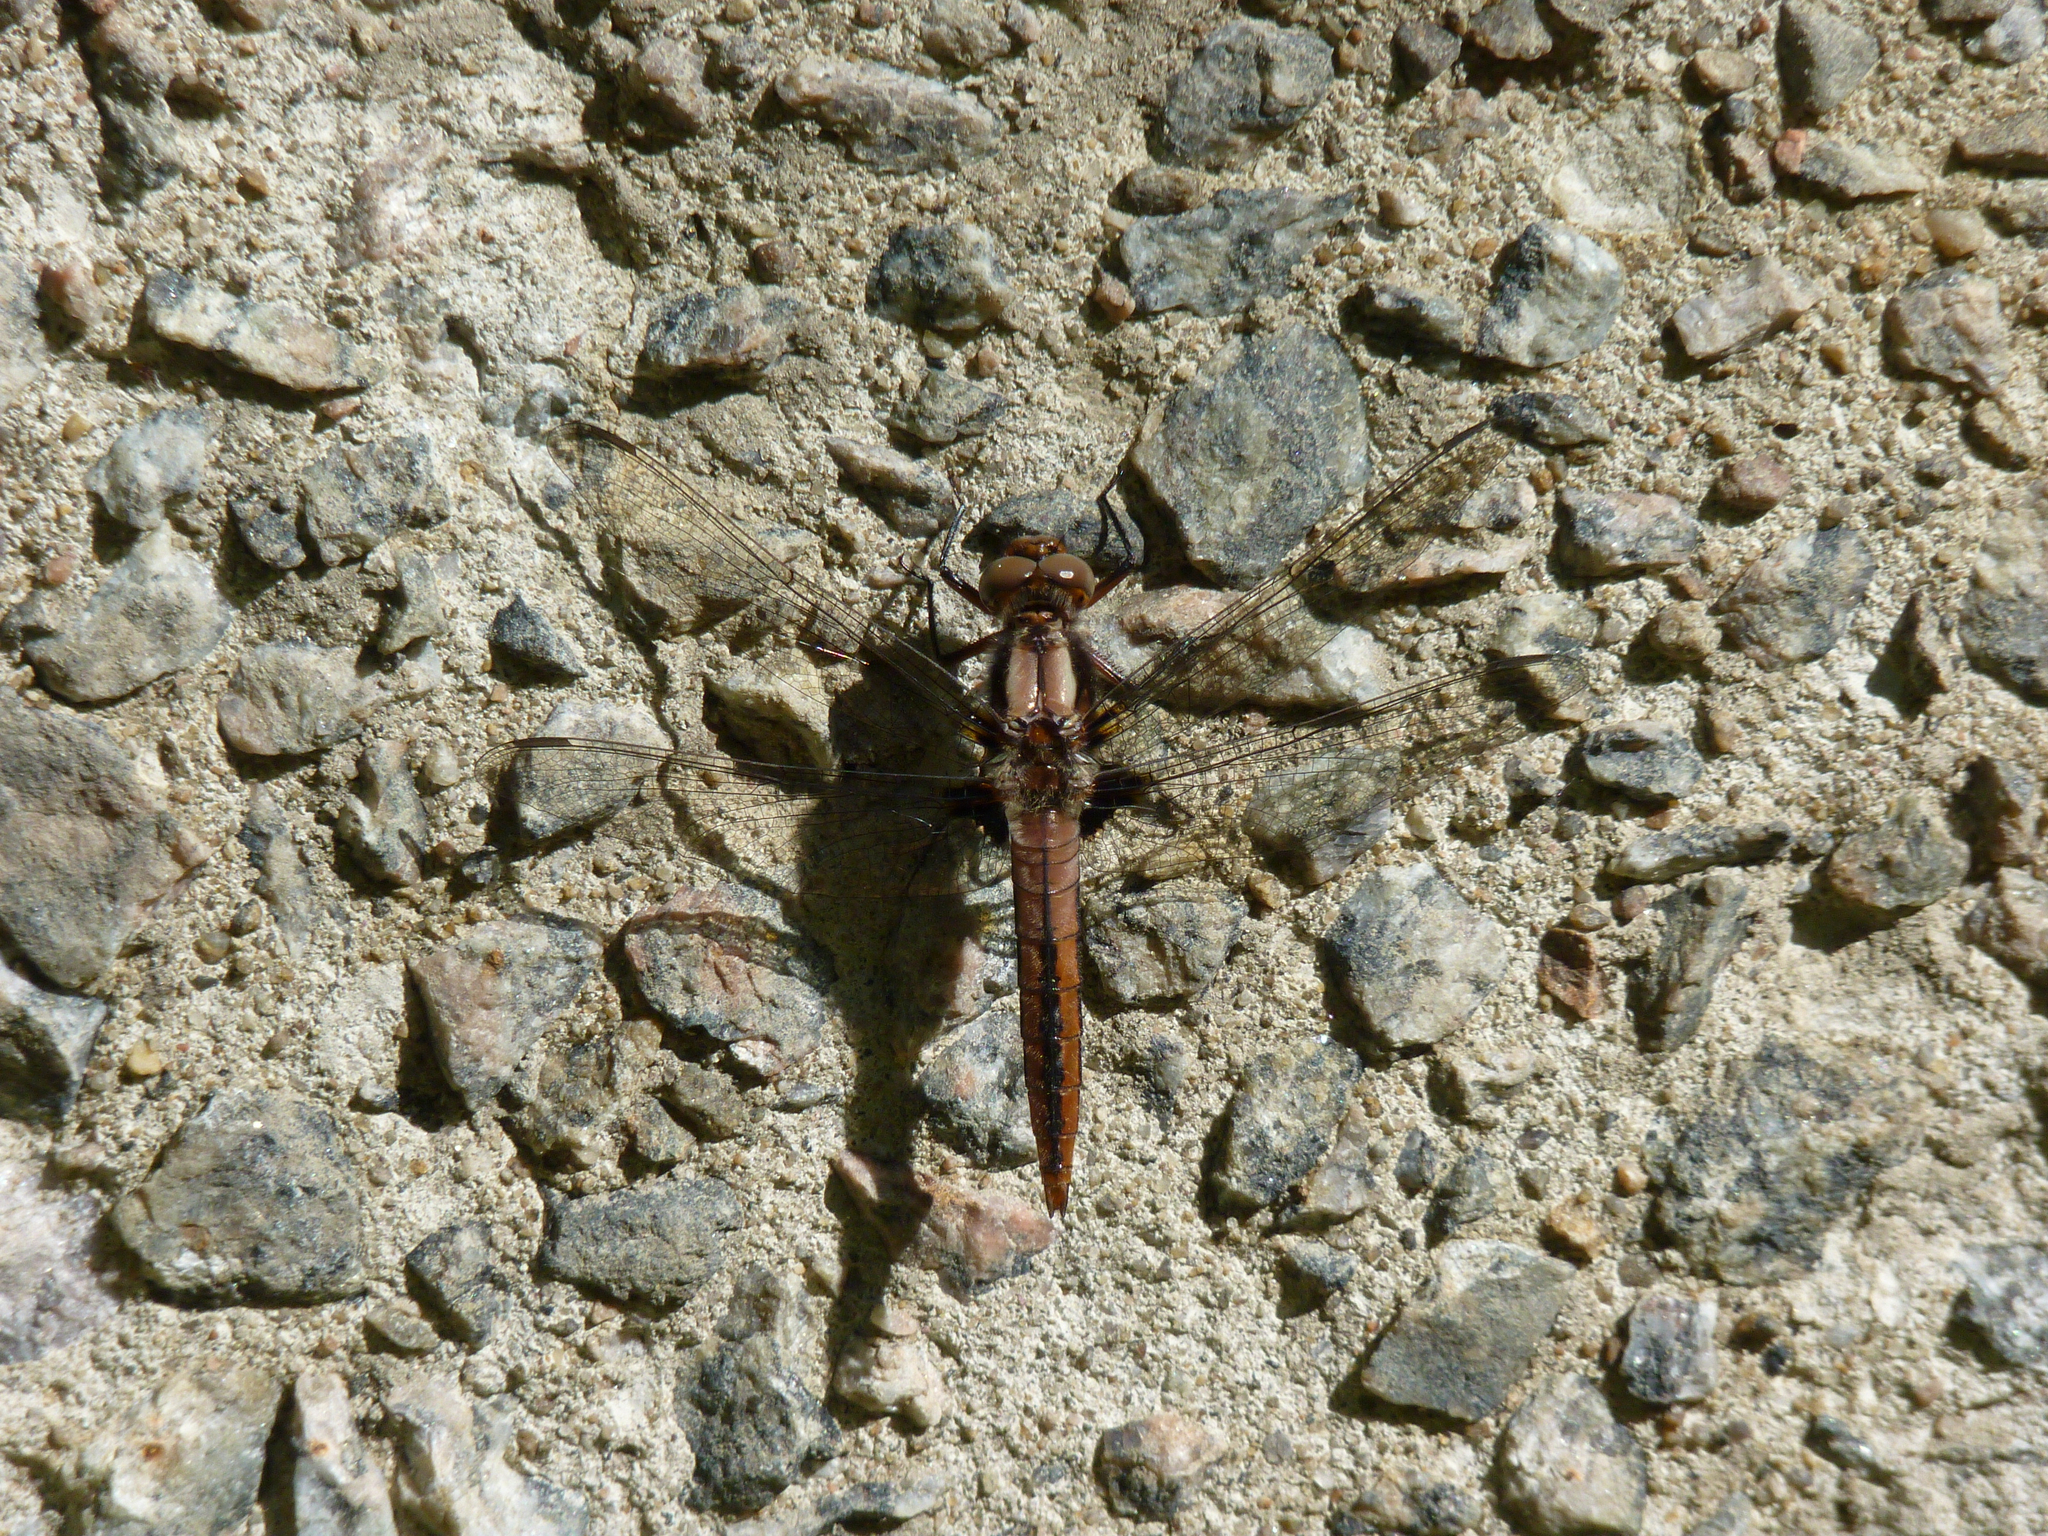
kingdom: Animalia
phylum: Arthropoda
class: Insecta
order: Odonata
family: Libellulidae
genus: Ladona
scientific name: Ladona julia
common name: Chalk-fronted corporal
